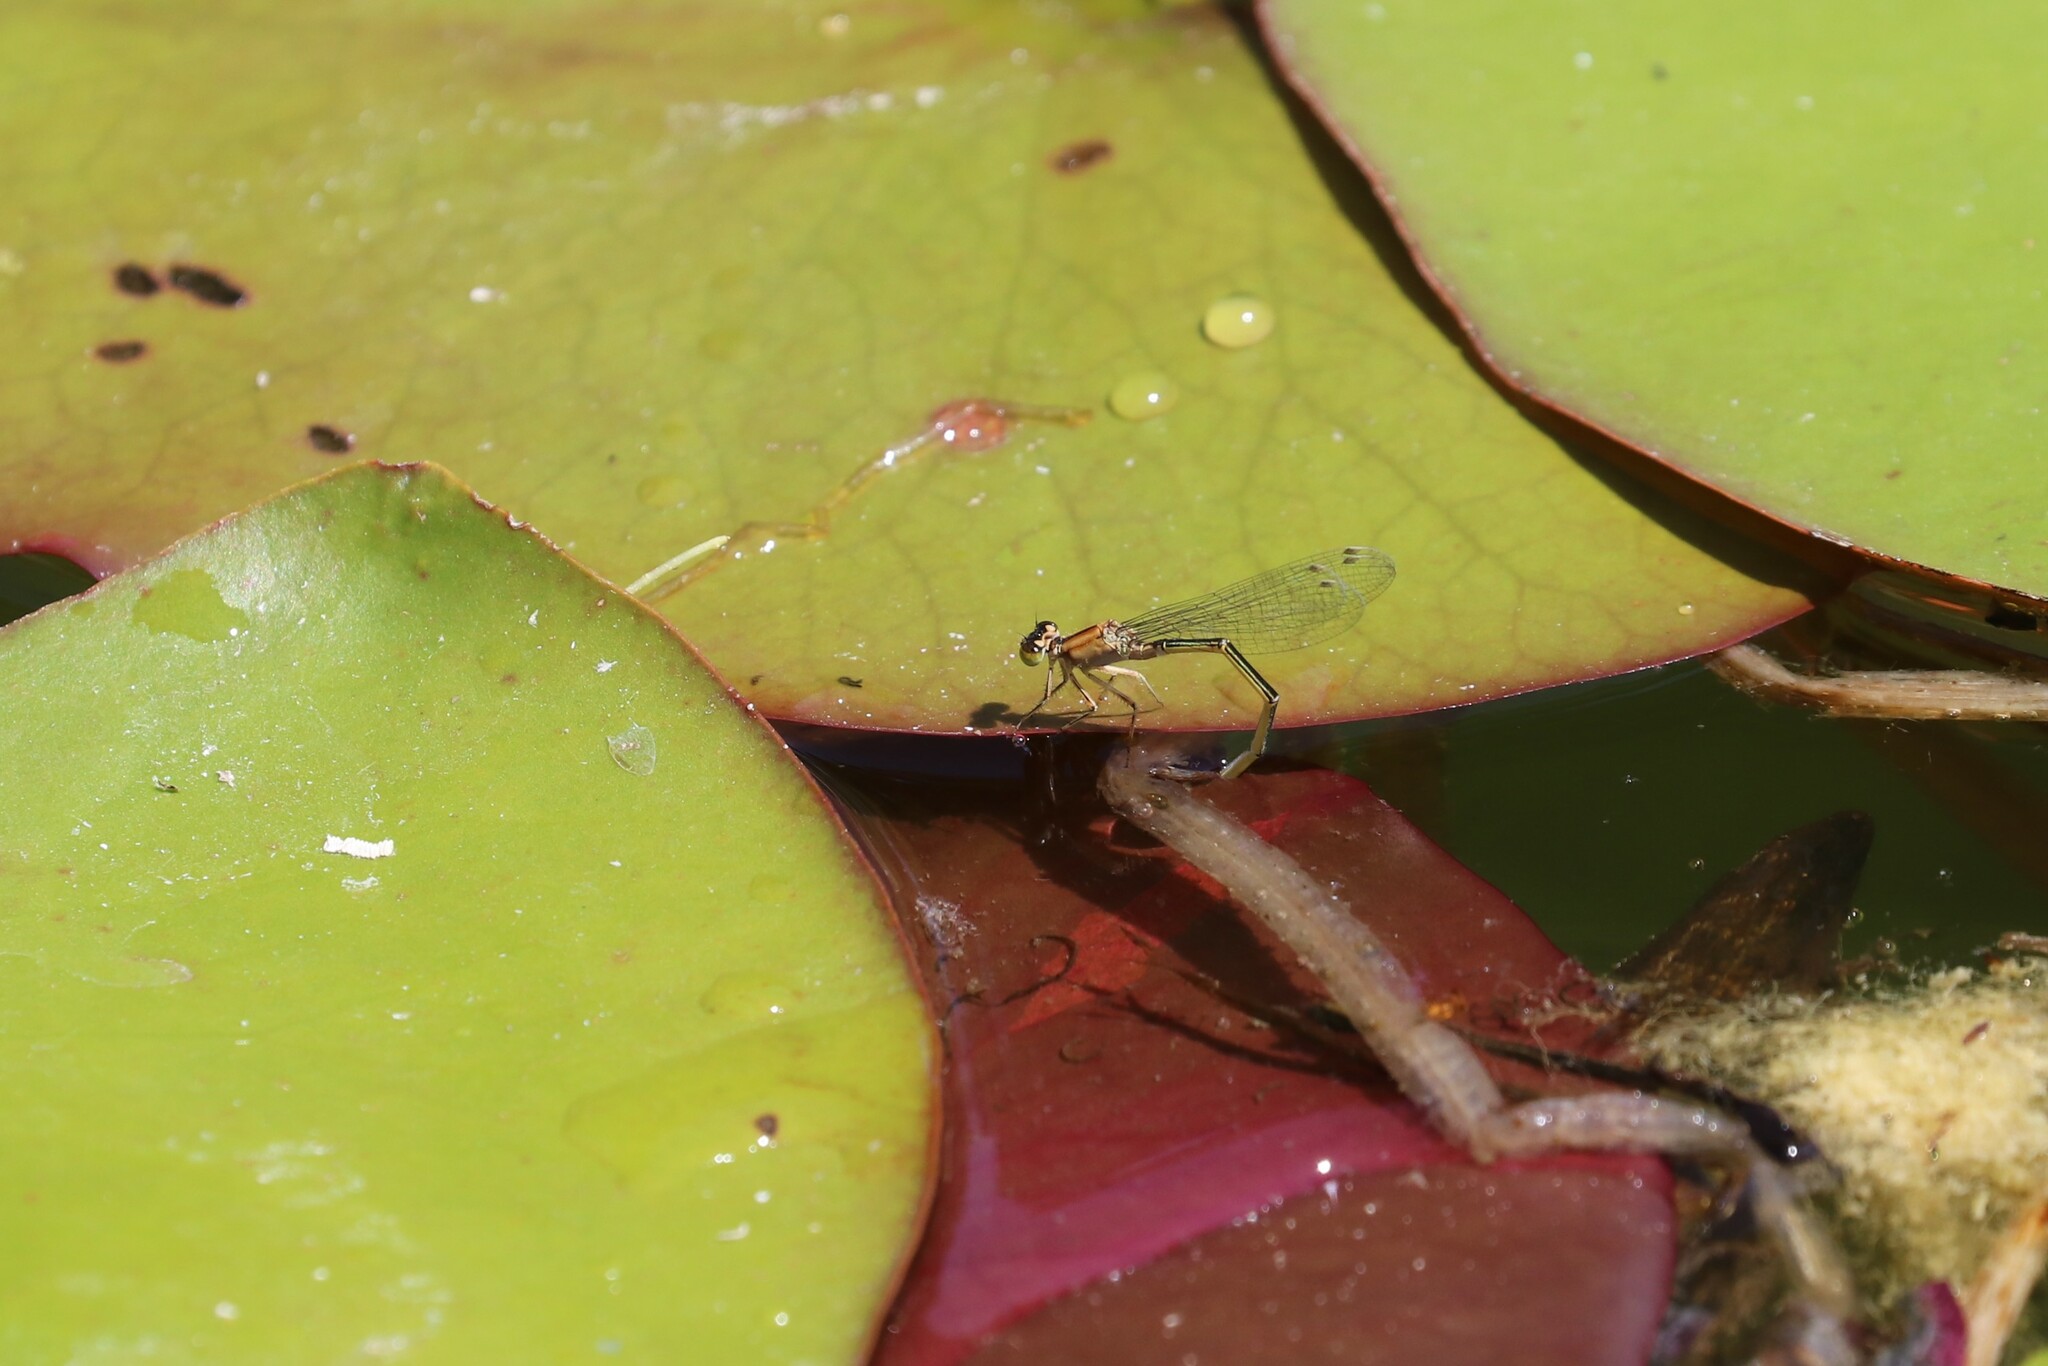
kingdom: Animalia
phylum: Arthropoda
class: Insecta
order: Odonata
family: Coenagrionidae
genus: Ischnura
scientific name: Ischnura elegans
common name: Blue-tailed damselfly
